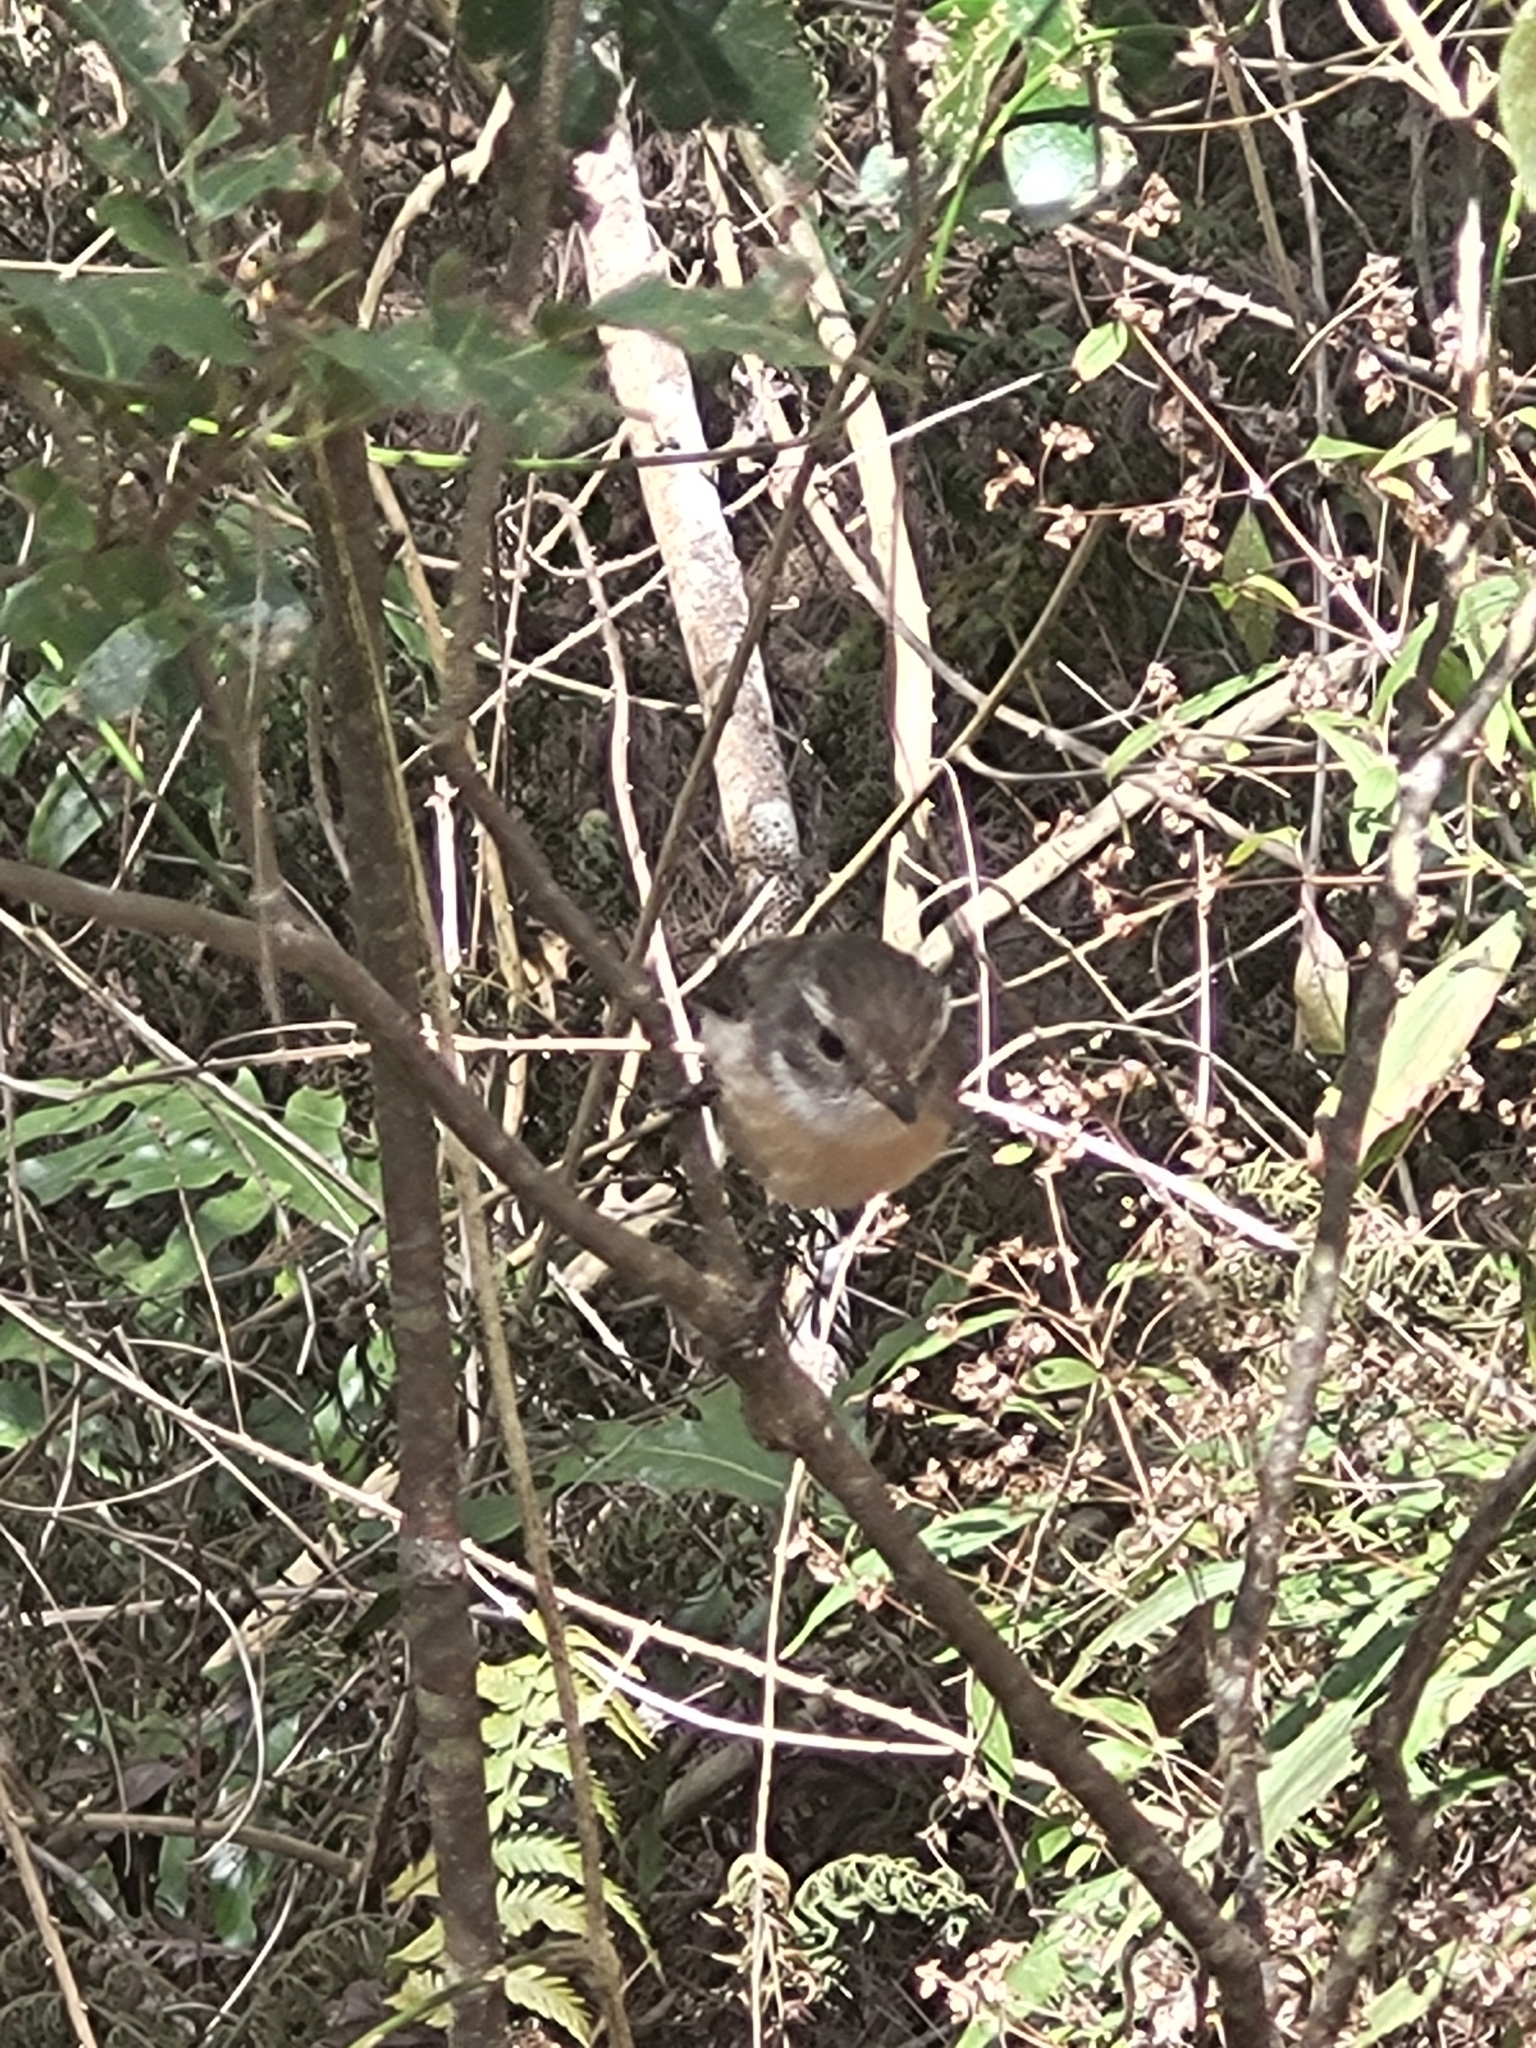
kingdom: Animalia
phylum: Chordata
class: Aves
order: Passeriformes
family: Muscicapidae
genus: Saxicola
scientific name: Saxicola tectes
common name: Reunion stonechat
